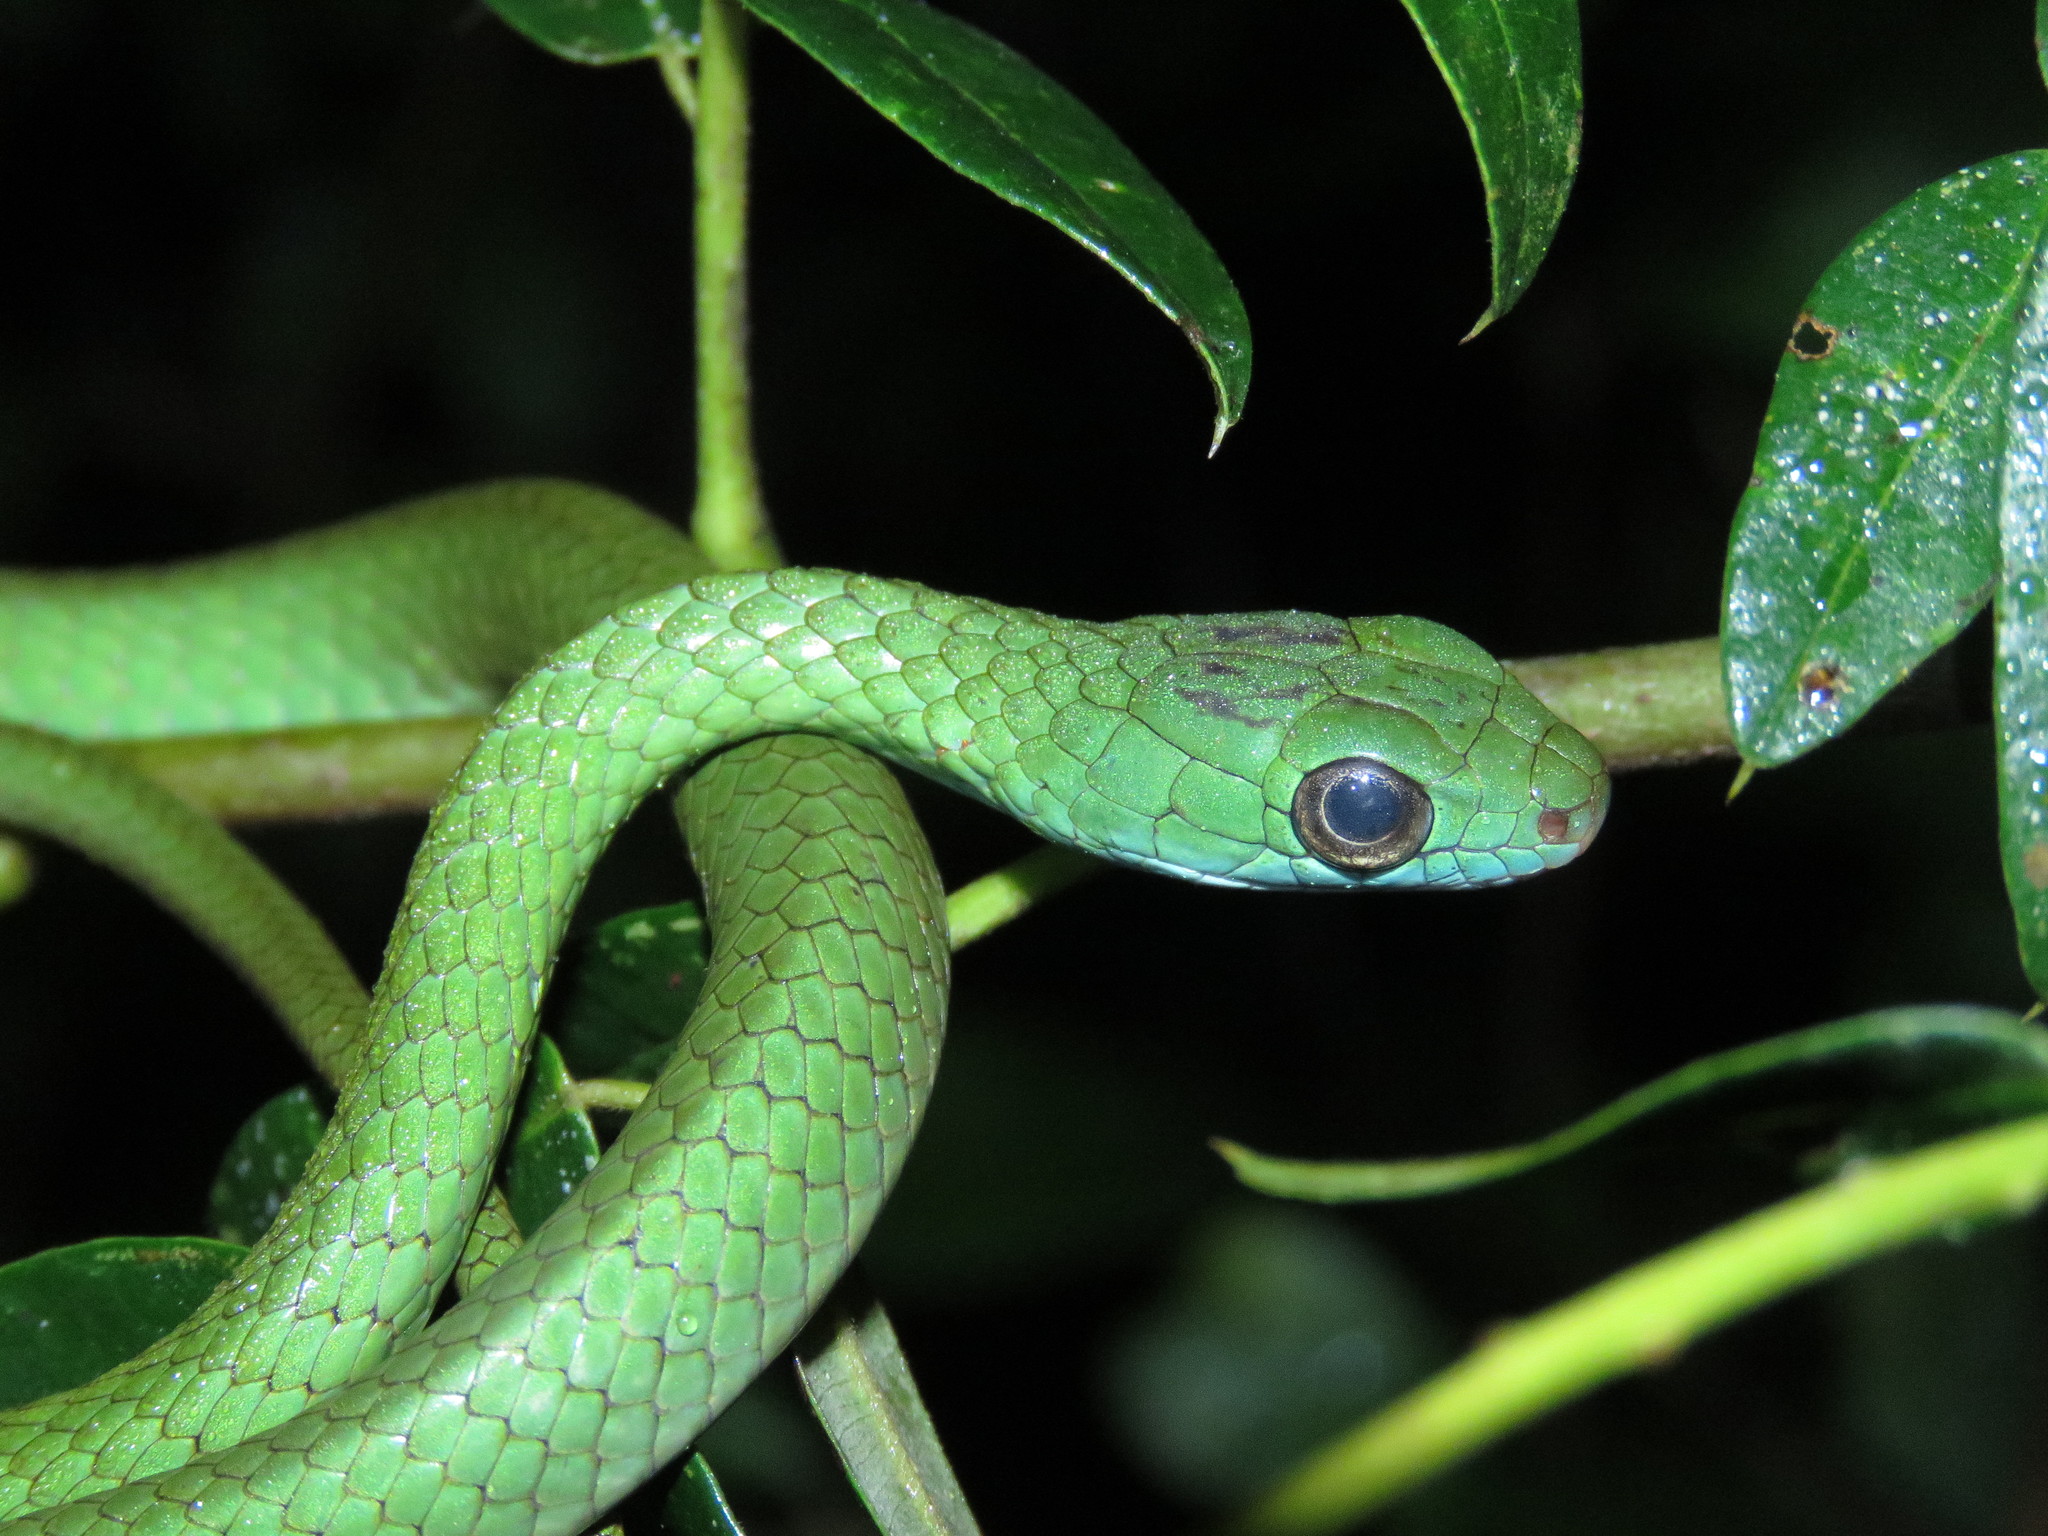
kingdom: Animalia
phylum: Chordata
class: Squamata
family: Colubridae
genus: Chironius
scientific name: Chironius scurrulus
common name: Wagler's sipo
